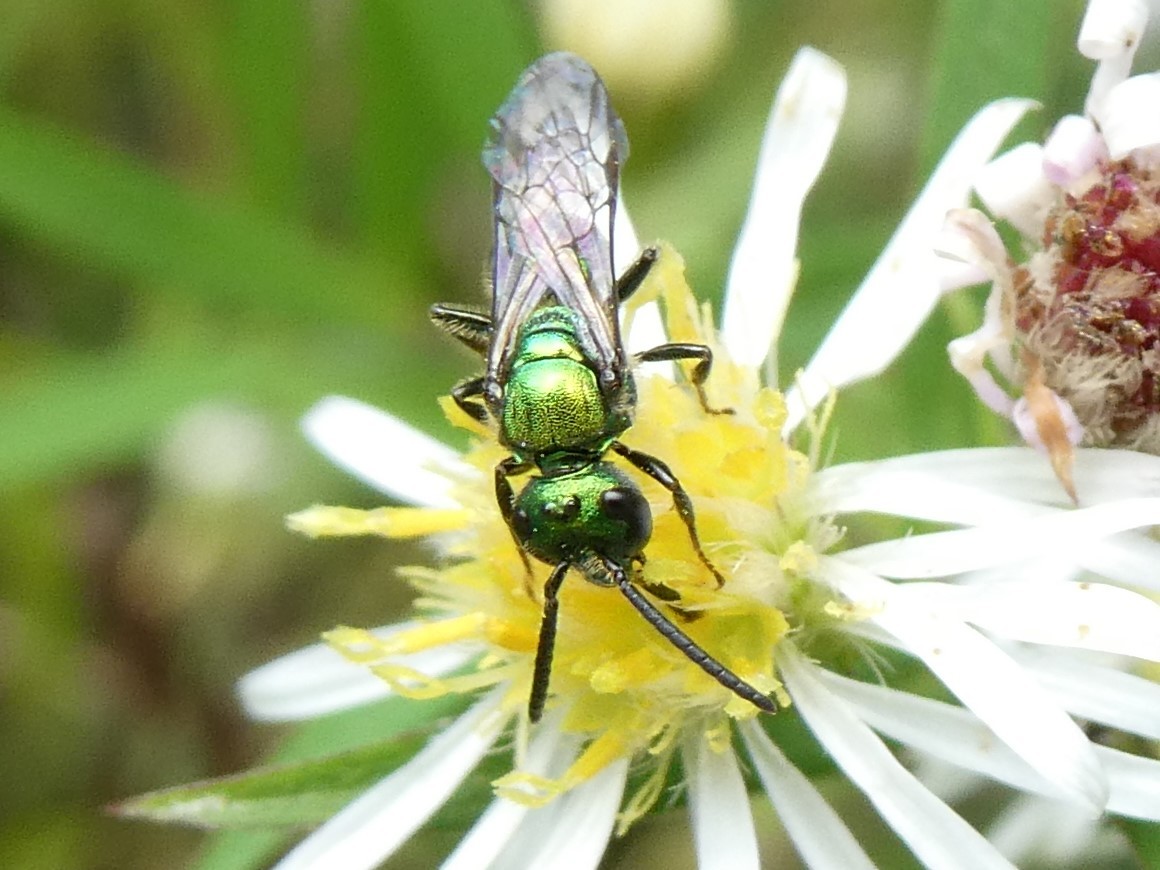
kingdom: Animalia
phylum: Arthropoda
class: Insecta
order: Hymenoptera
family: Halictidae
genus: Augochlora
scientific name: Augochlora pura
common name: Pure green sweat bee
